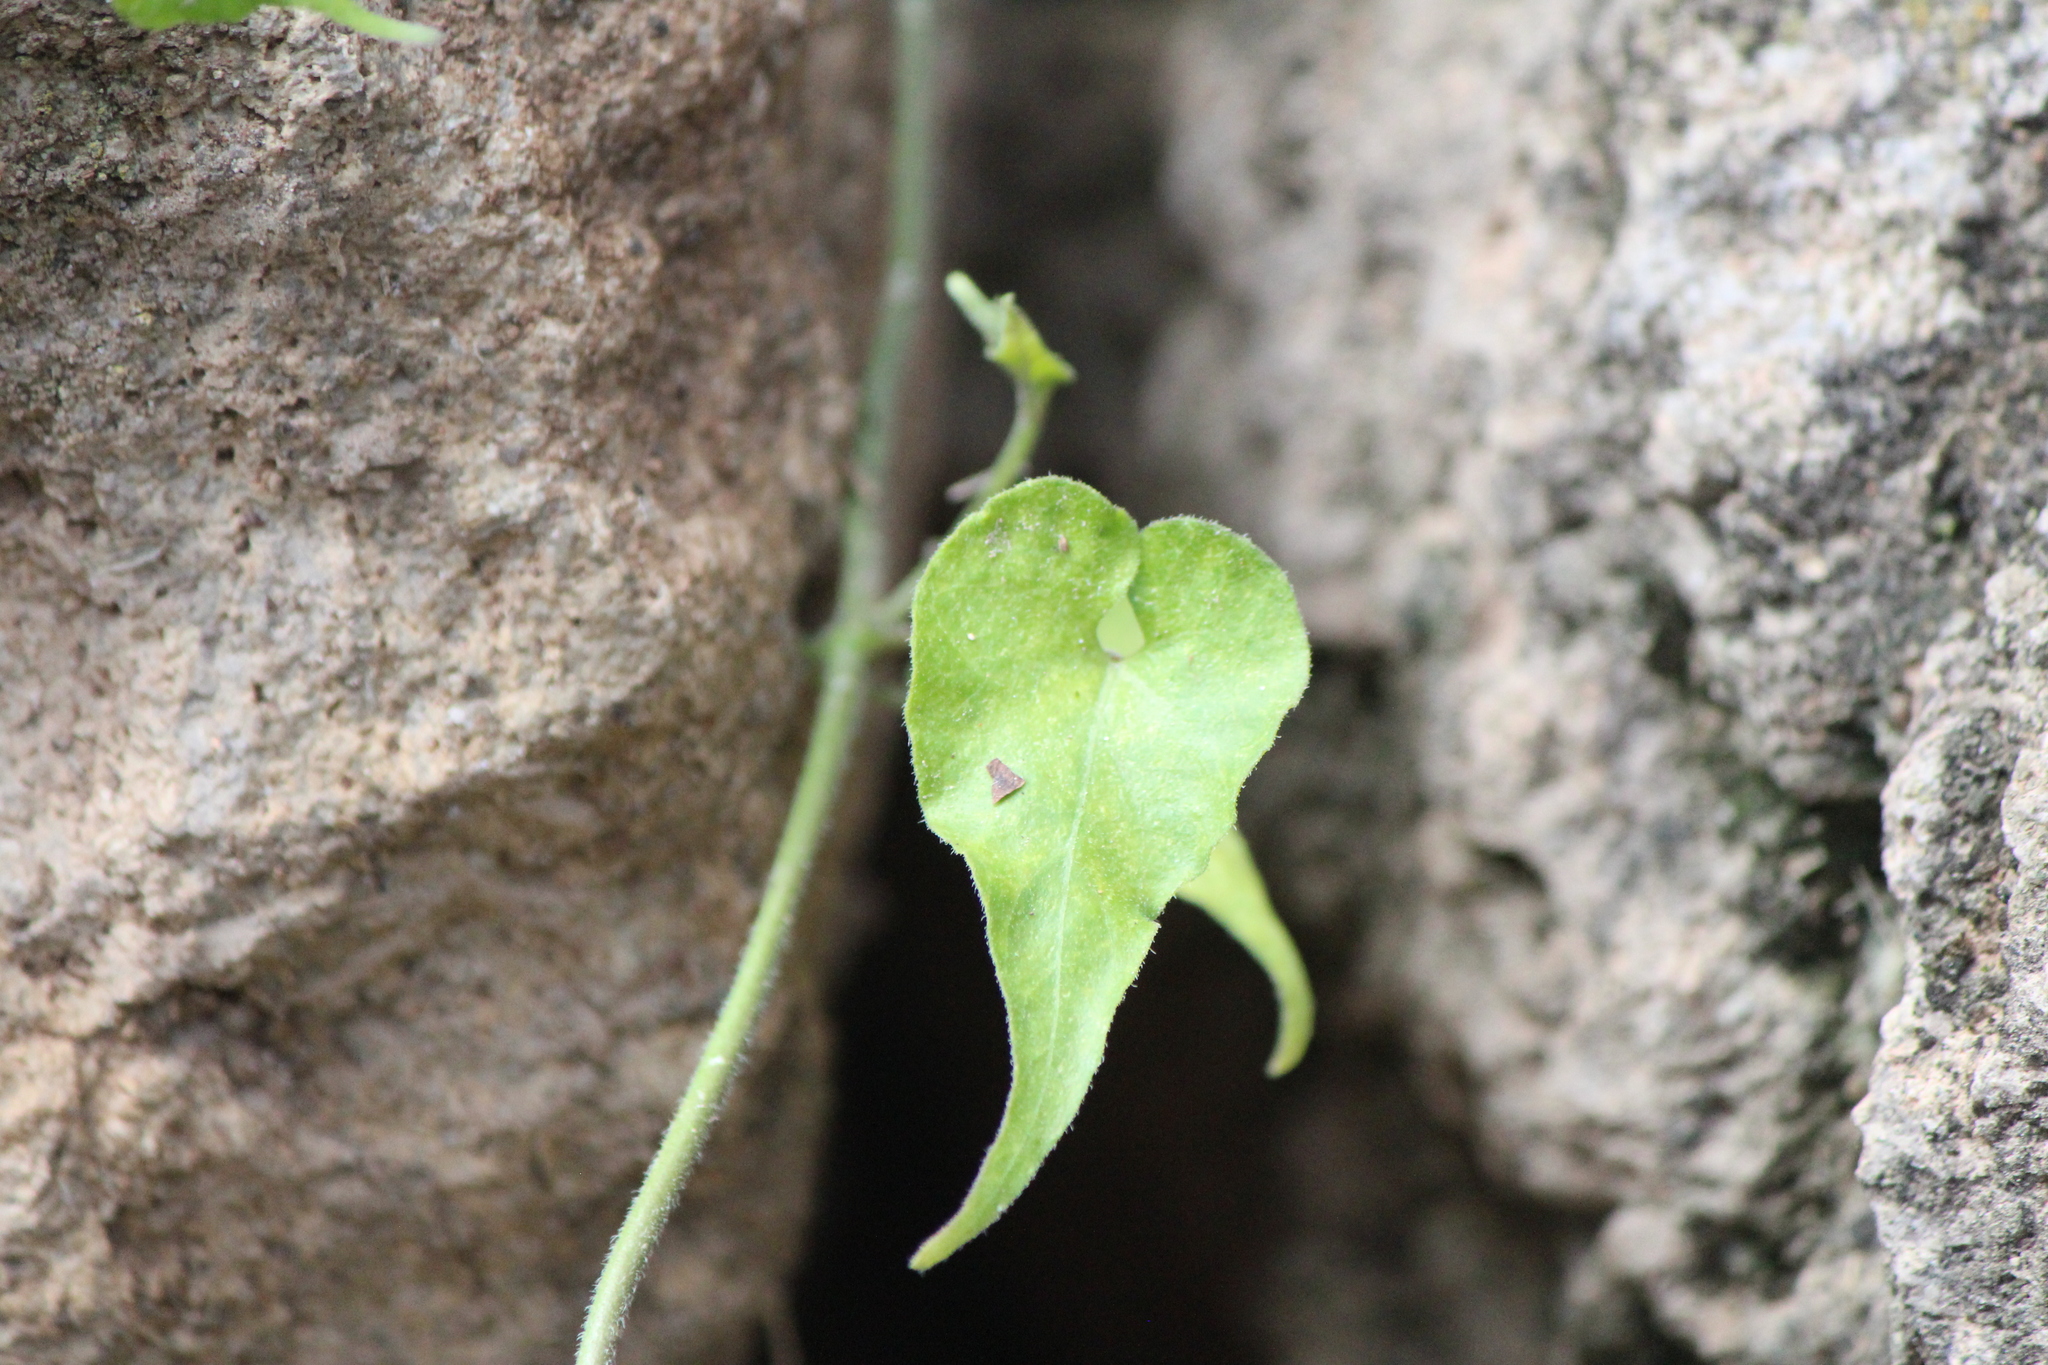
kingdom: Plantae
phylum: Tracheophyta
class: Magnoliopsida
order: Gentianales
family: Apocynaceae
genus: Chthamalia
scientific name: Chthamalia ojadapantha
